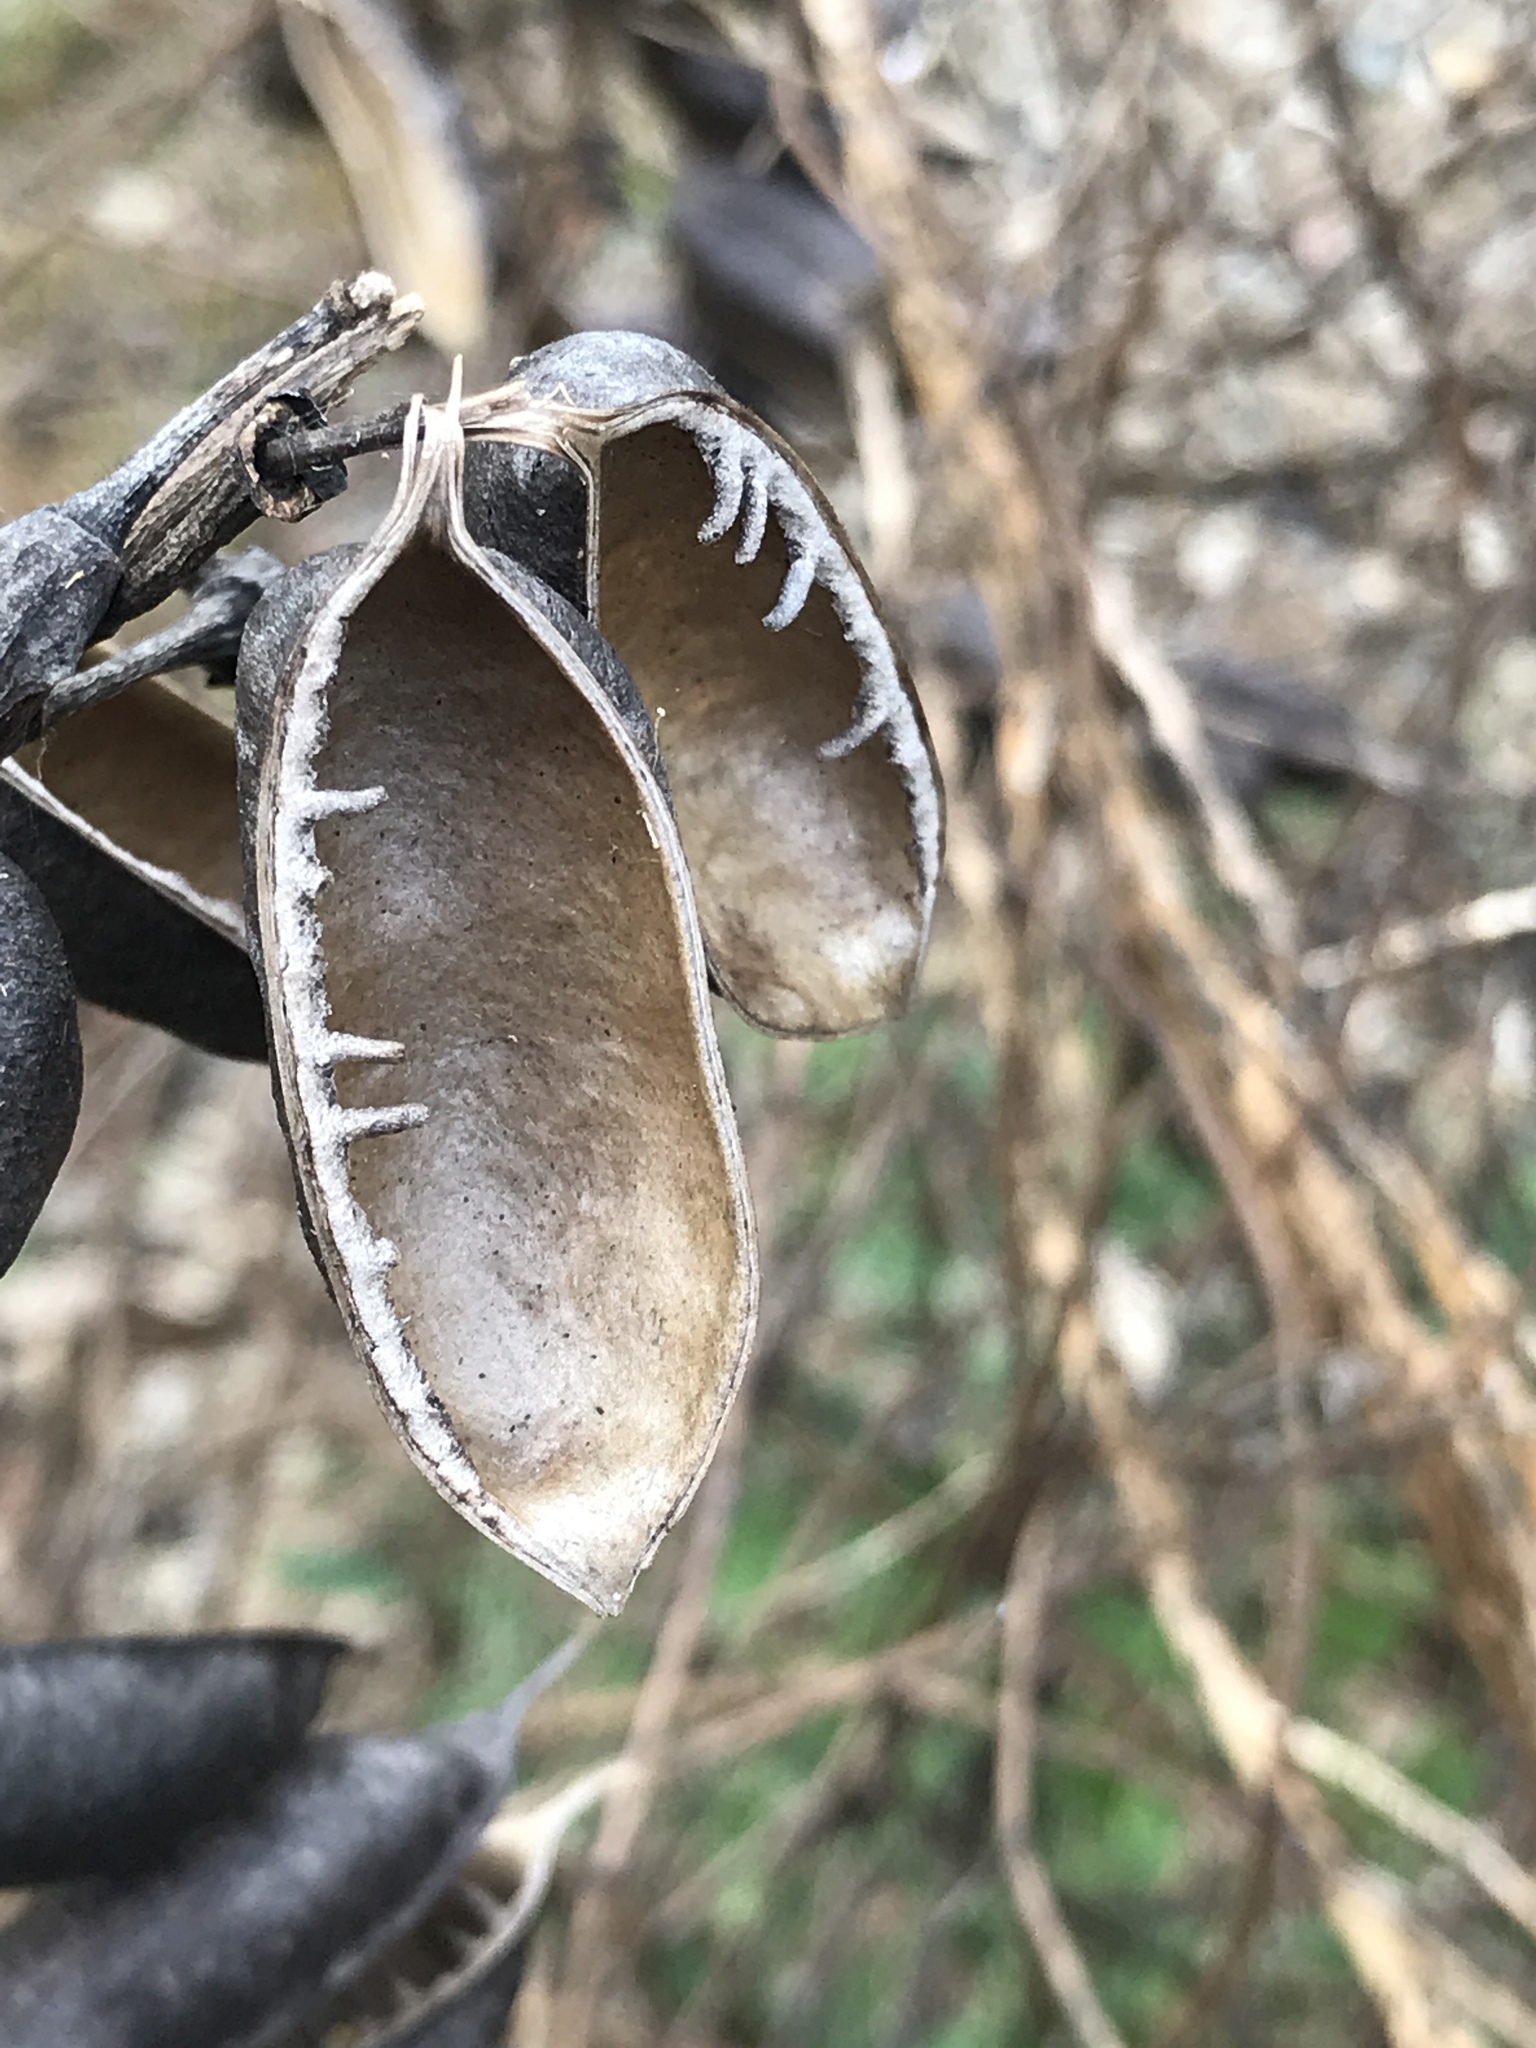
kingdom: Plantae
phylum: Tracheophyta
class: Magnoliopsida
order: Fabales
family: Fabaceae
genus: Baptisia
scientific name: Baptisia alba
